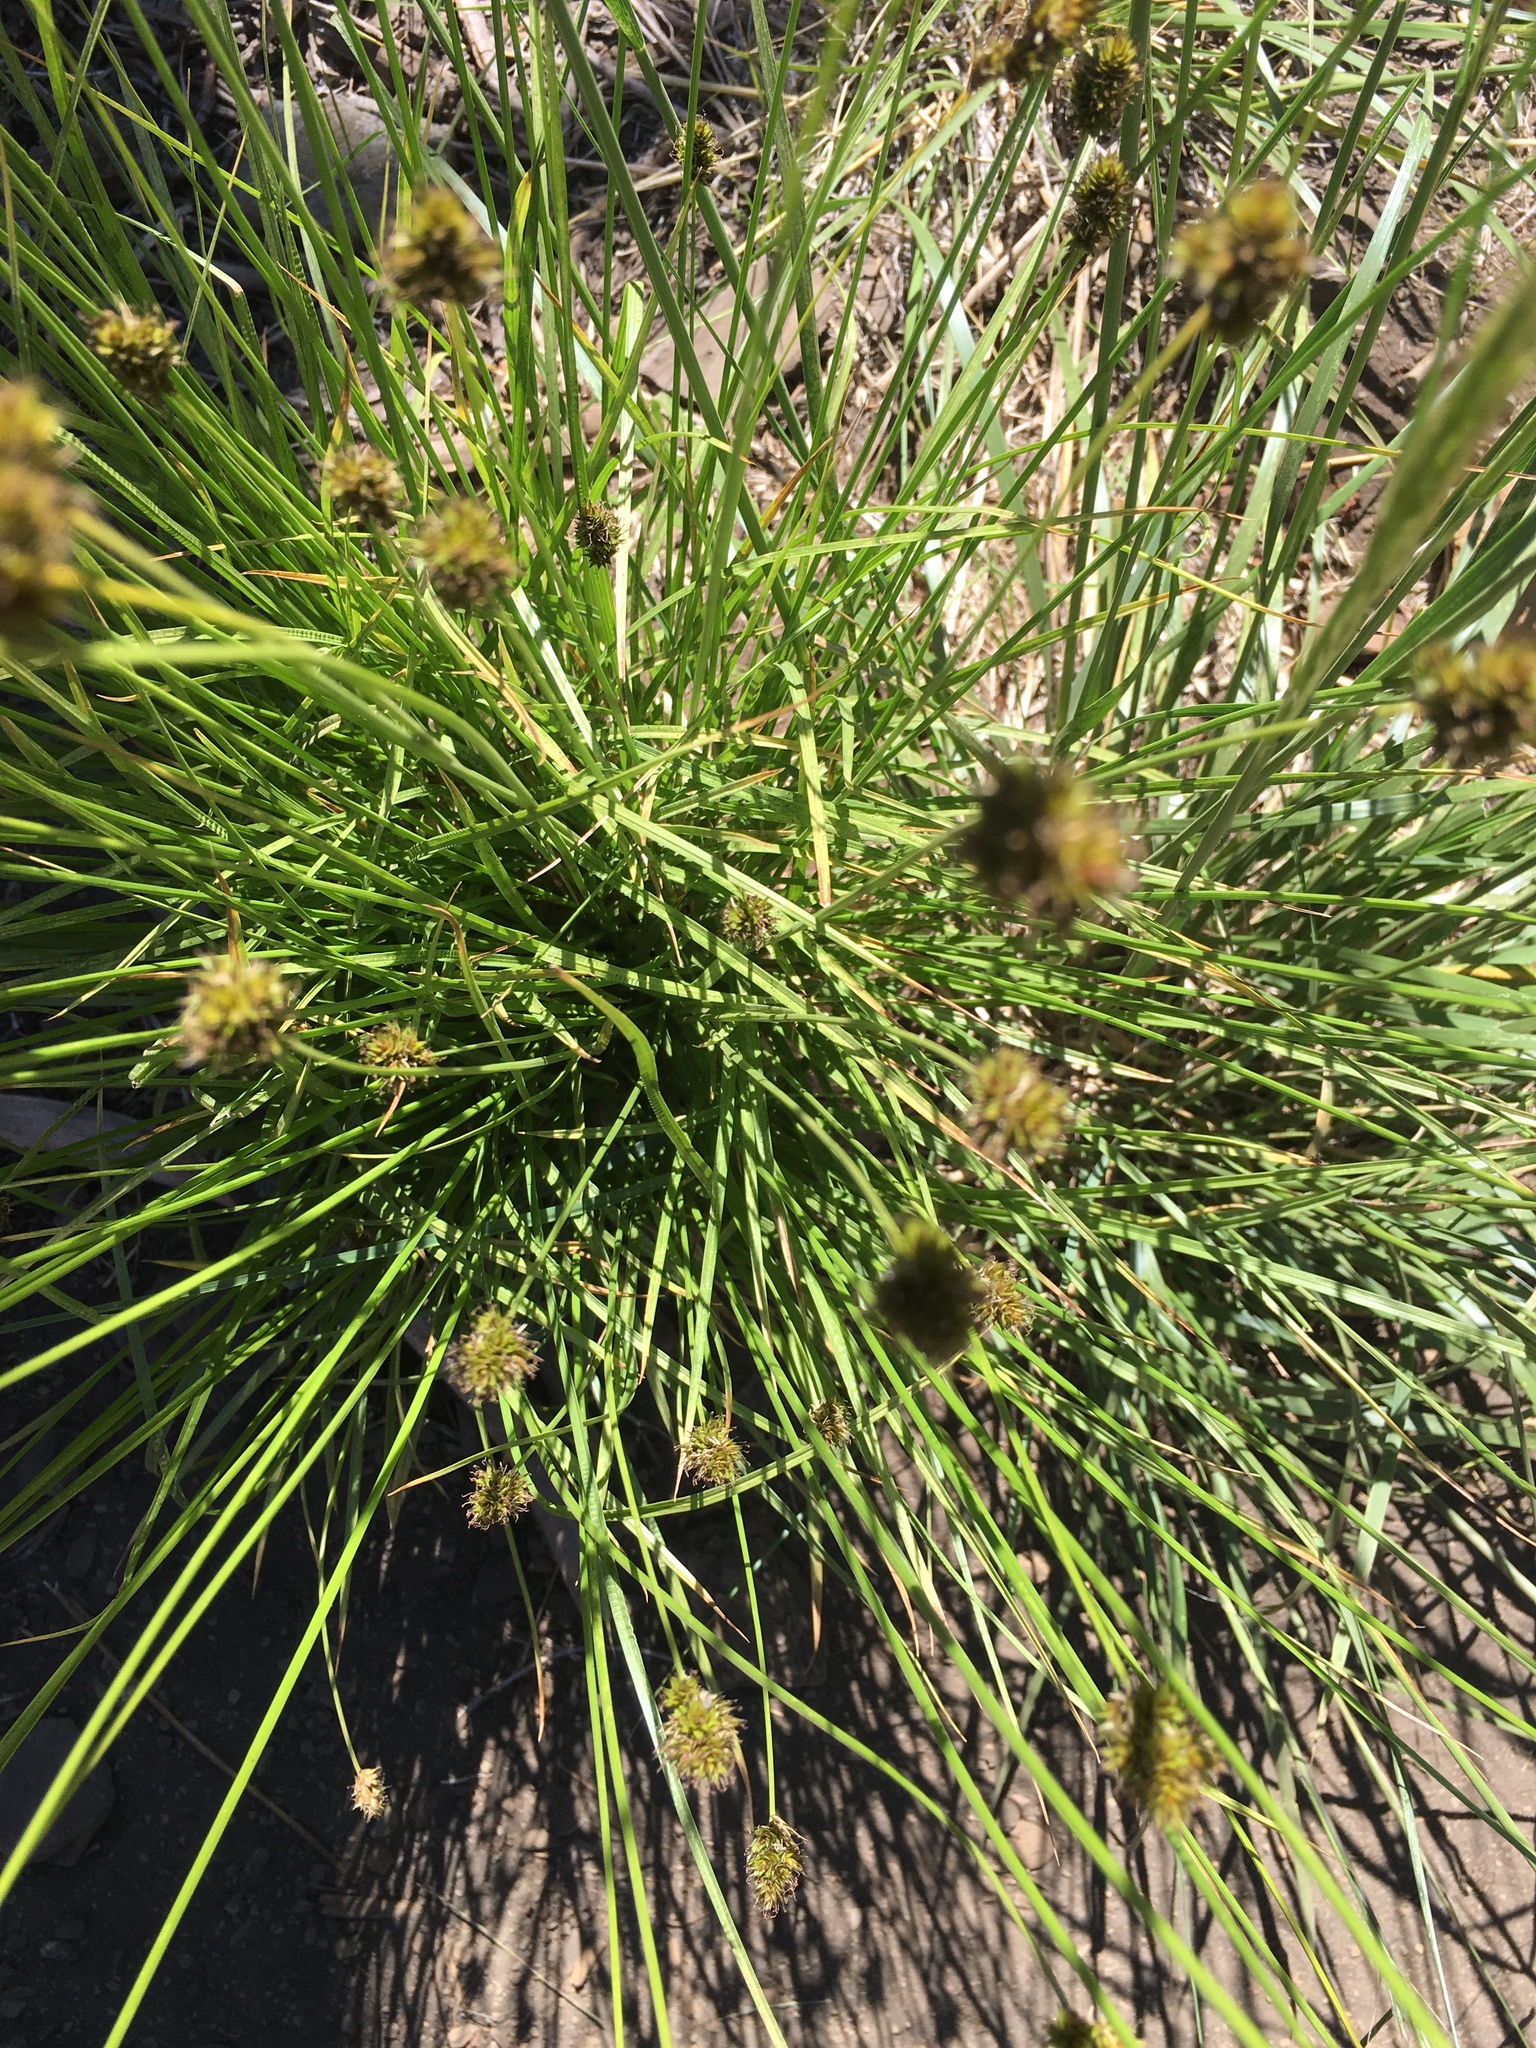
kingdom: Plantae
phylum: Tracheophyta
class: Liliopsida
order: Liliales
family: Melanthiaceae
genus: Xerophyllum
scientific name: Xerophyllum tenax
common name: Bear-grass
